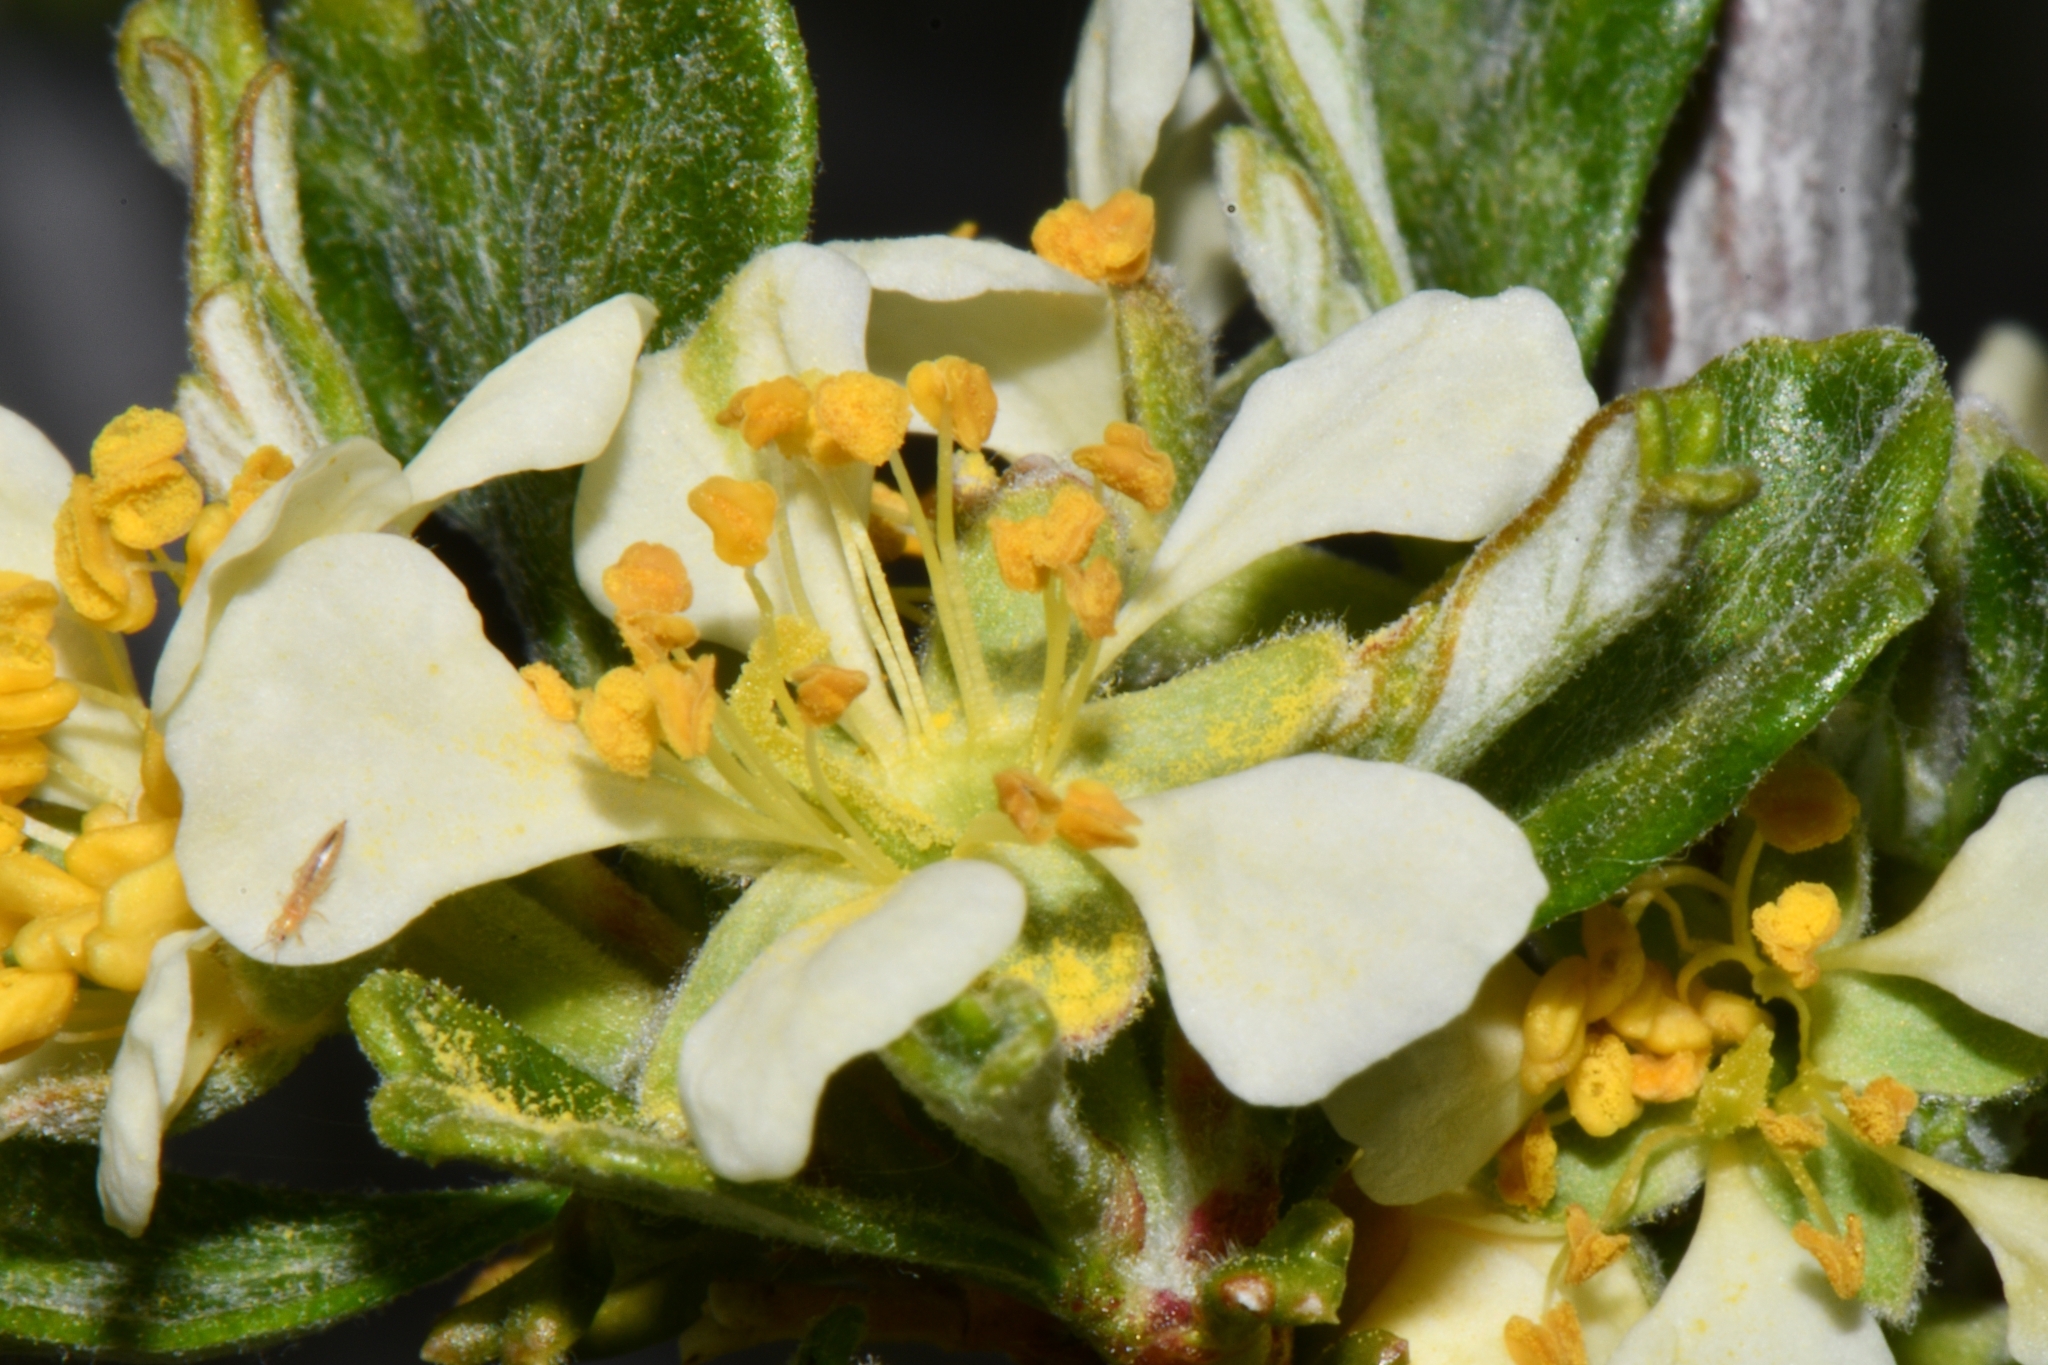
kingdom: Plantae
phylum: Tracheophyta
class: Magnoliopsida
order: Rosales
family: Rosaceae
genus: Purshia
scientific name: Purshia tridentata
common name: Antelope bitterbrush
